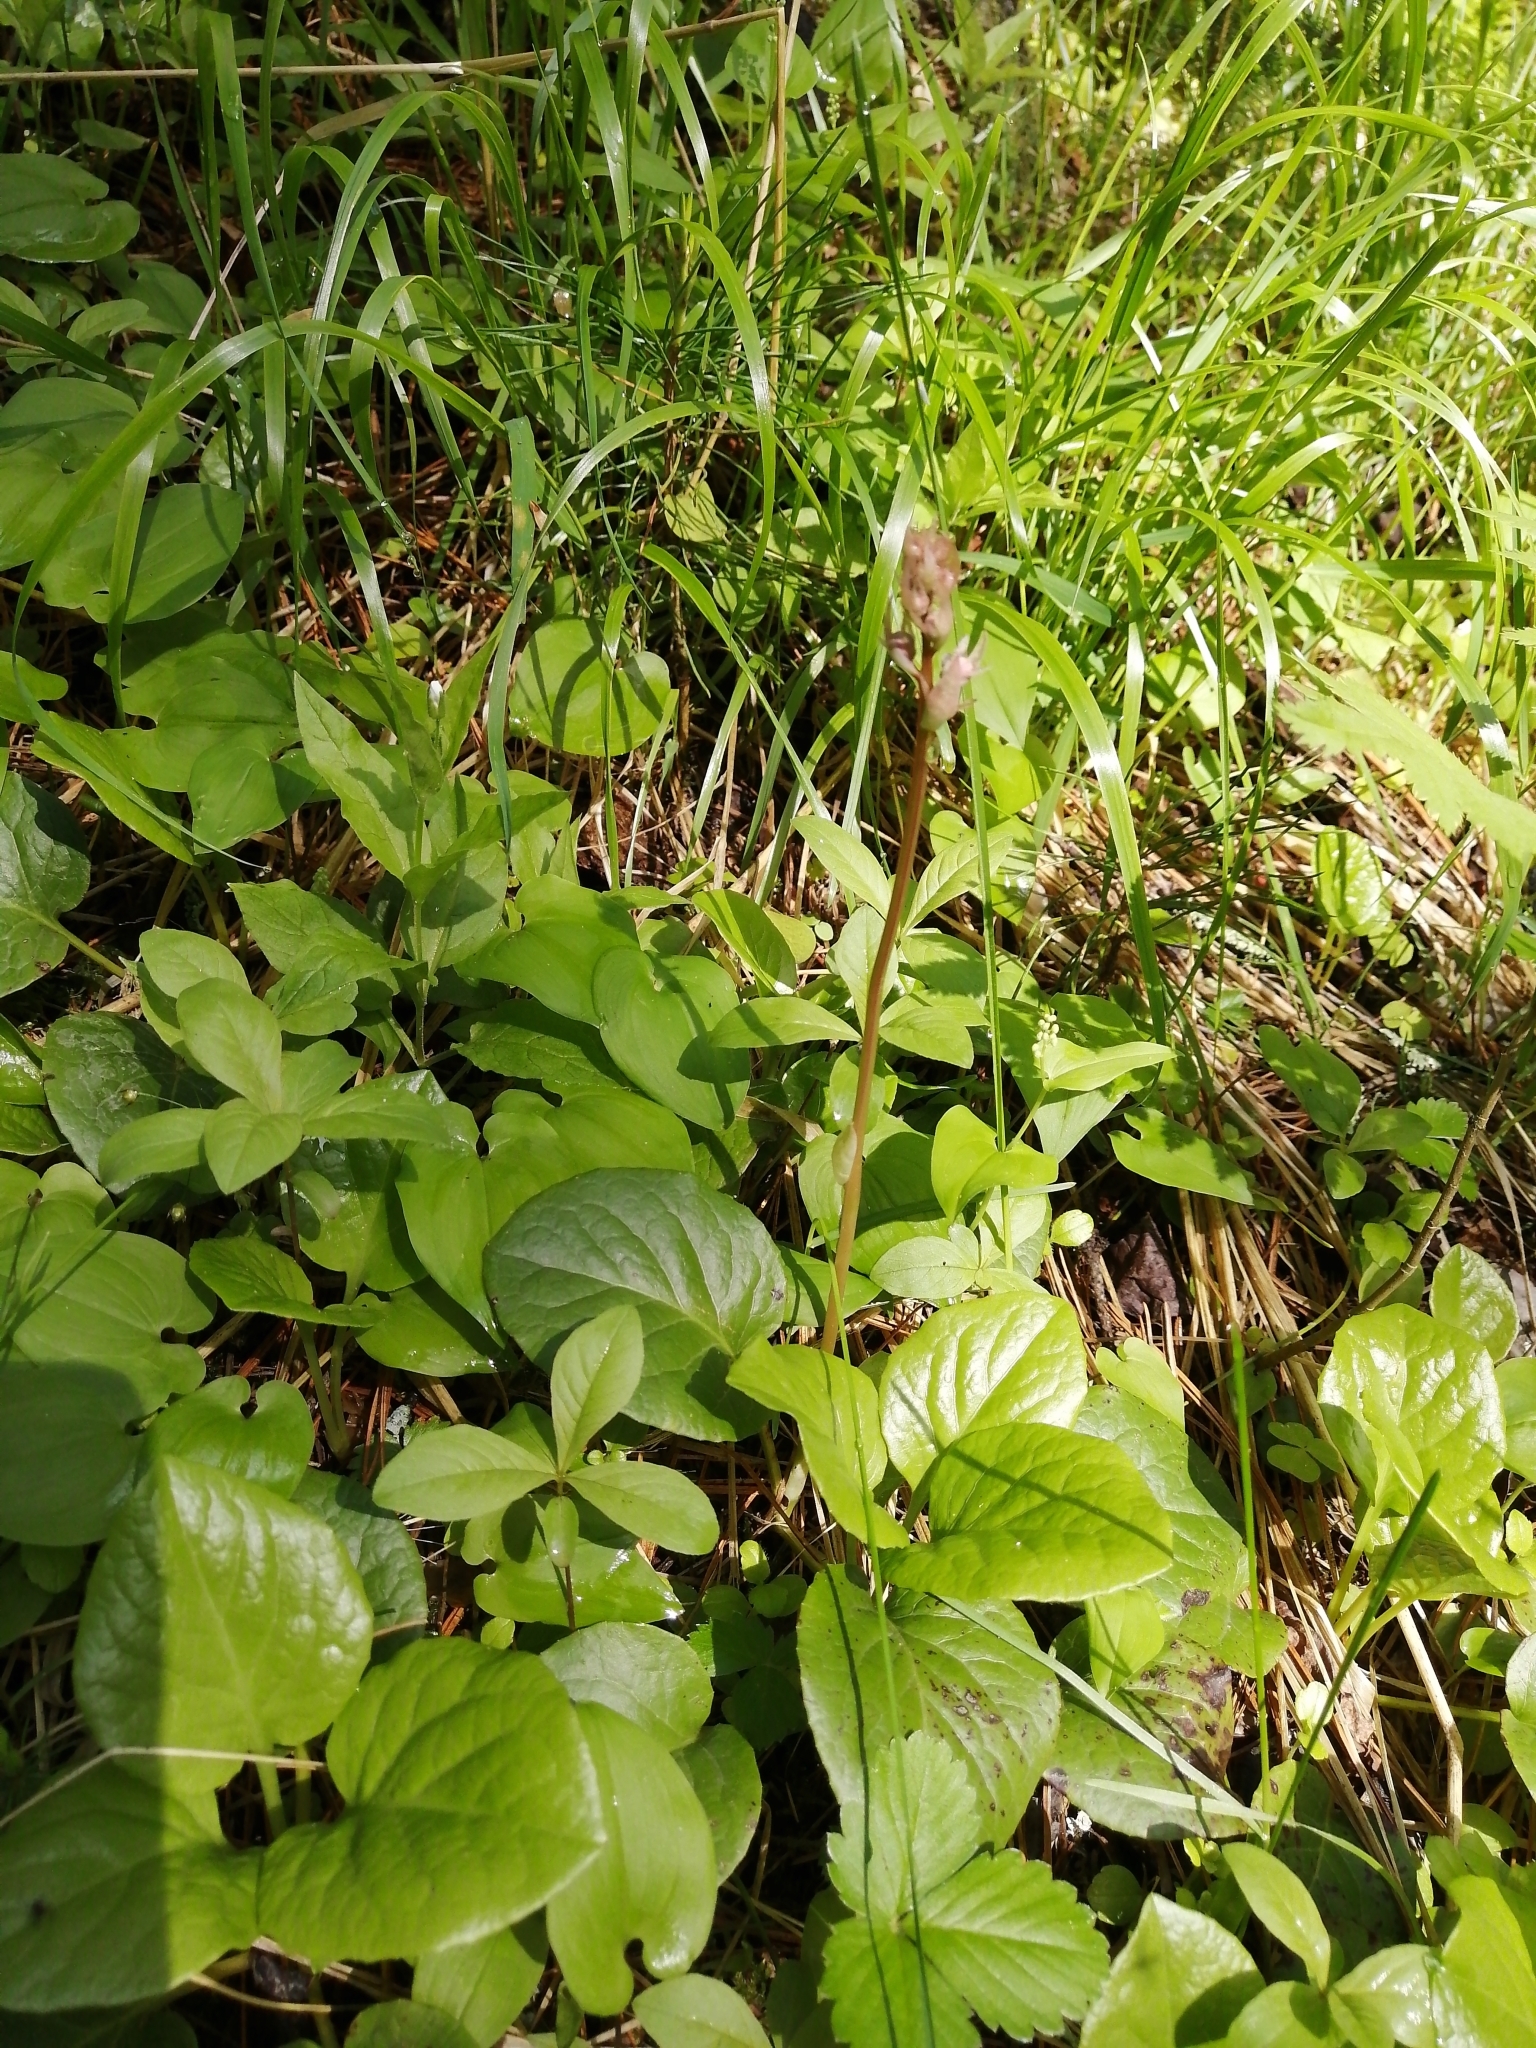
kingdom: Plantae
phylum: Tracheophyta
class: Magnoliopsida
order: Ericales
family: Ericaceae
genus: Pyrola
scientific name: Pyrola asarifolia
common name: Bog wintergreen
